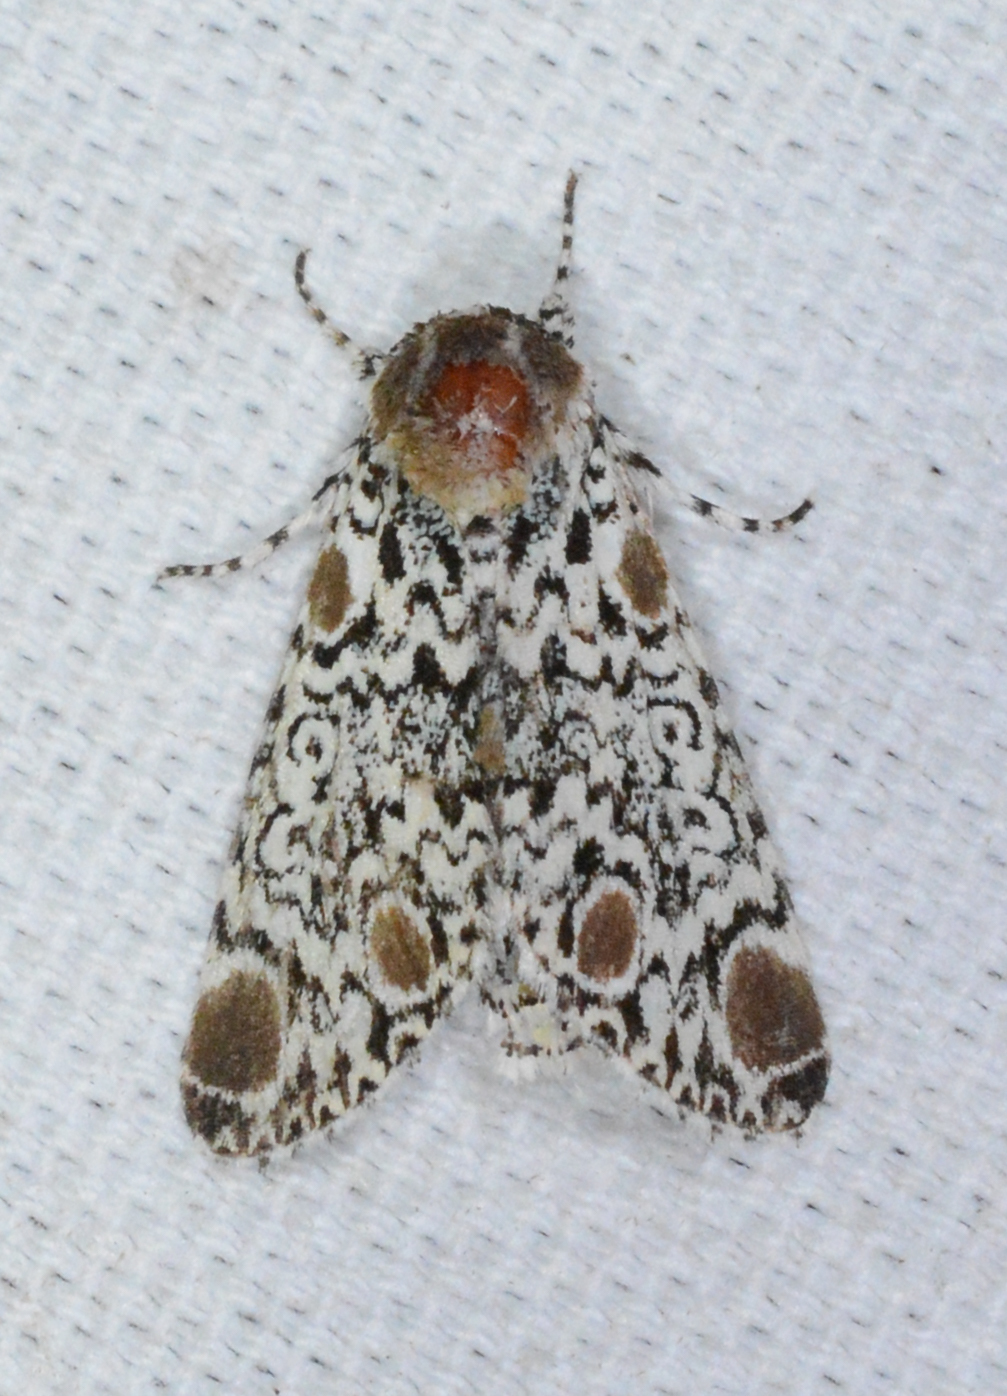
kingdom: Animalia
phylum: Arthropoda
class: Insecta
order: Lepidoptera
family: Noctuidae
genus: Harrisimemna
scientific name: Harrisimemna trisignata
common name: Harris threespot
